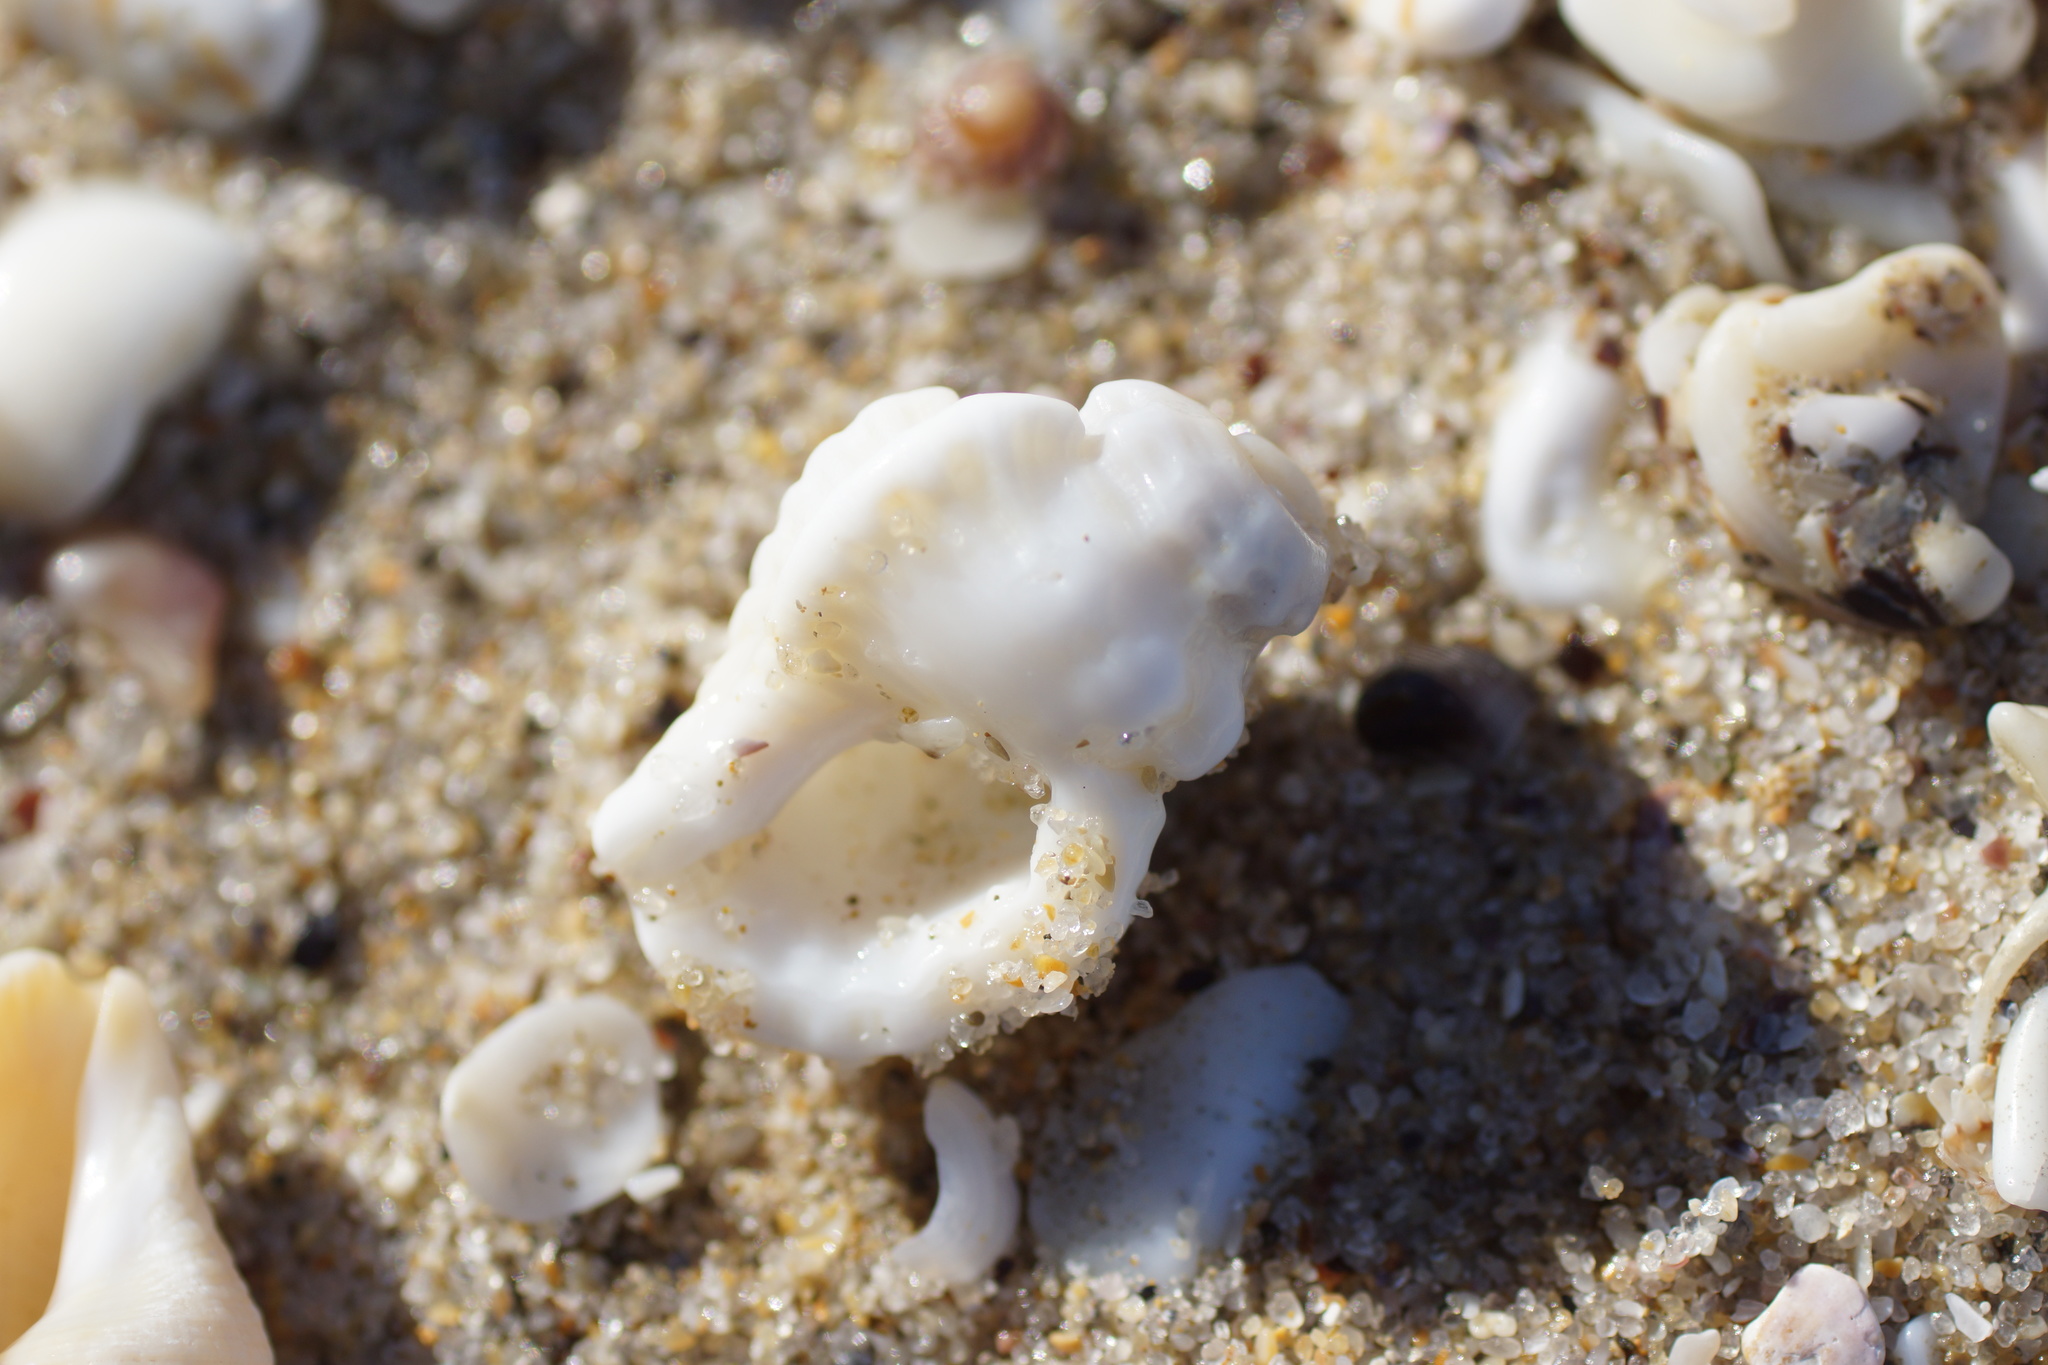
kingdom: Animalia
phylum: Mollusca
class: Gastropoda
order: Littorinimorpha
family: Cymatiidae
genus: Cabestana
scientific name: Cabestana tabulata
